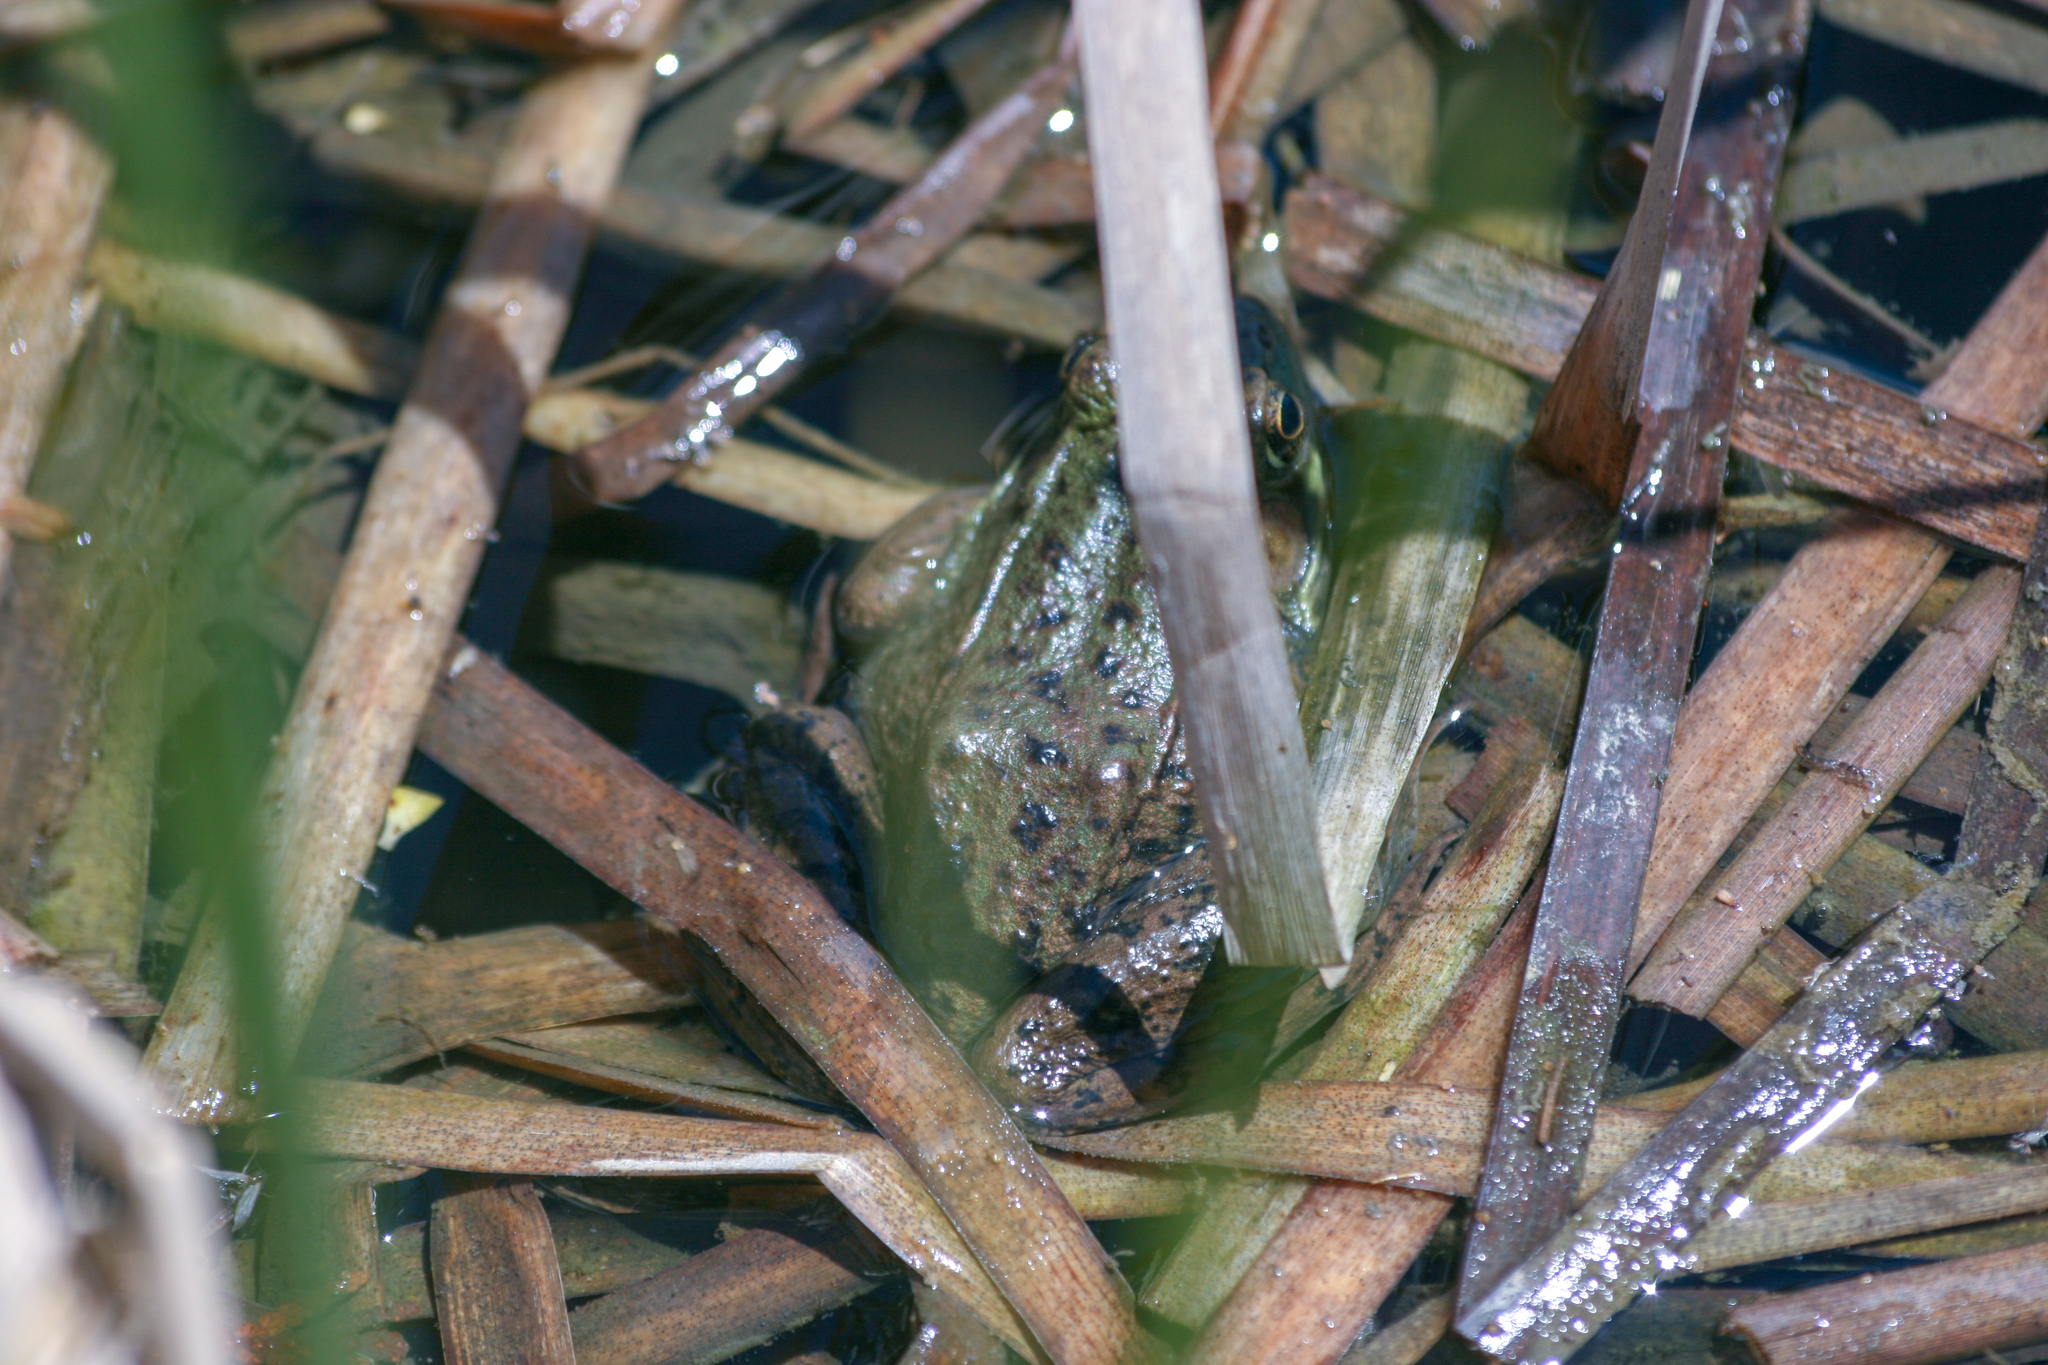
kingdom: Animalia
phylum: Chordata
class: Amphibia
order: Anura
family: Ranidae
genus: Lithobates
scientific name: Lithobates clamitans
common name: Green frog
